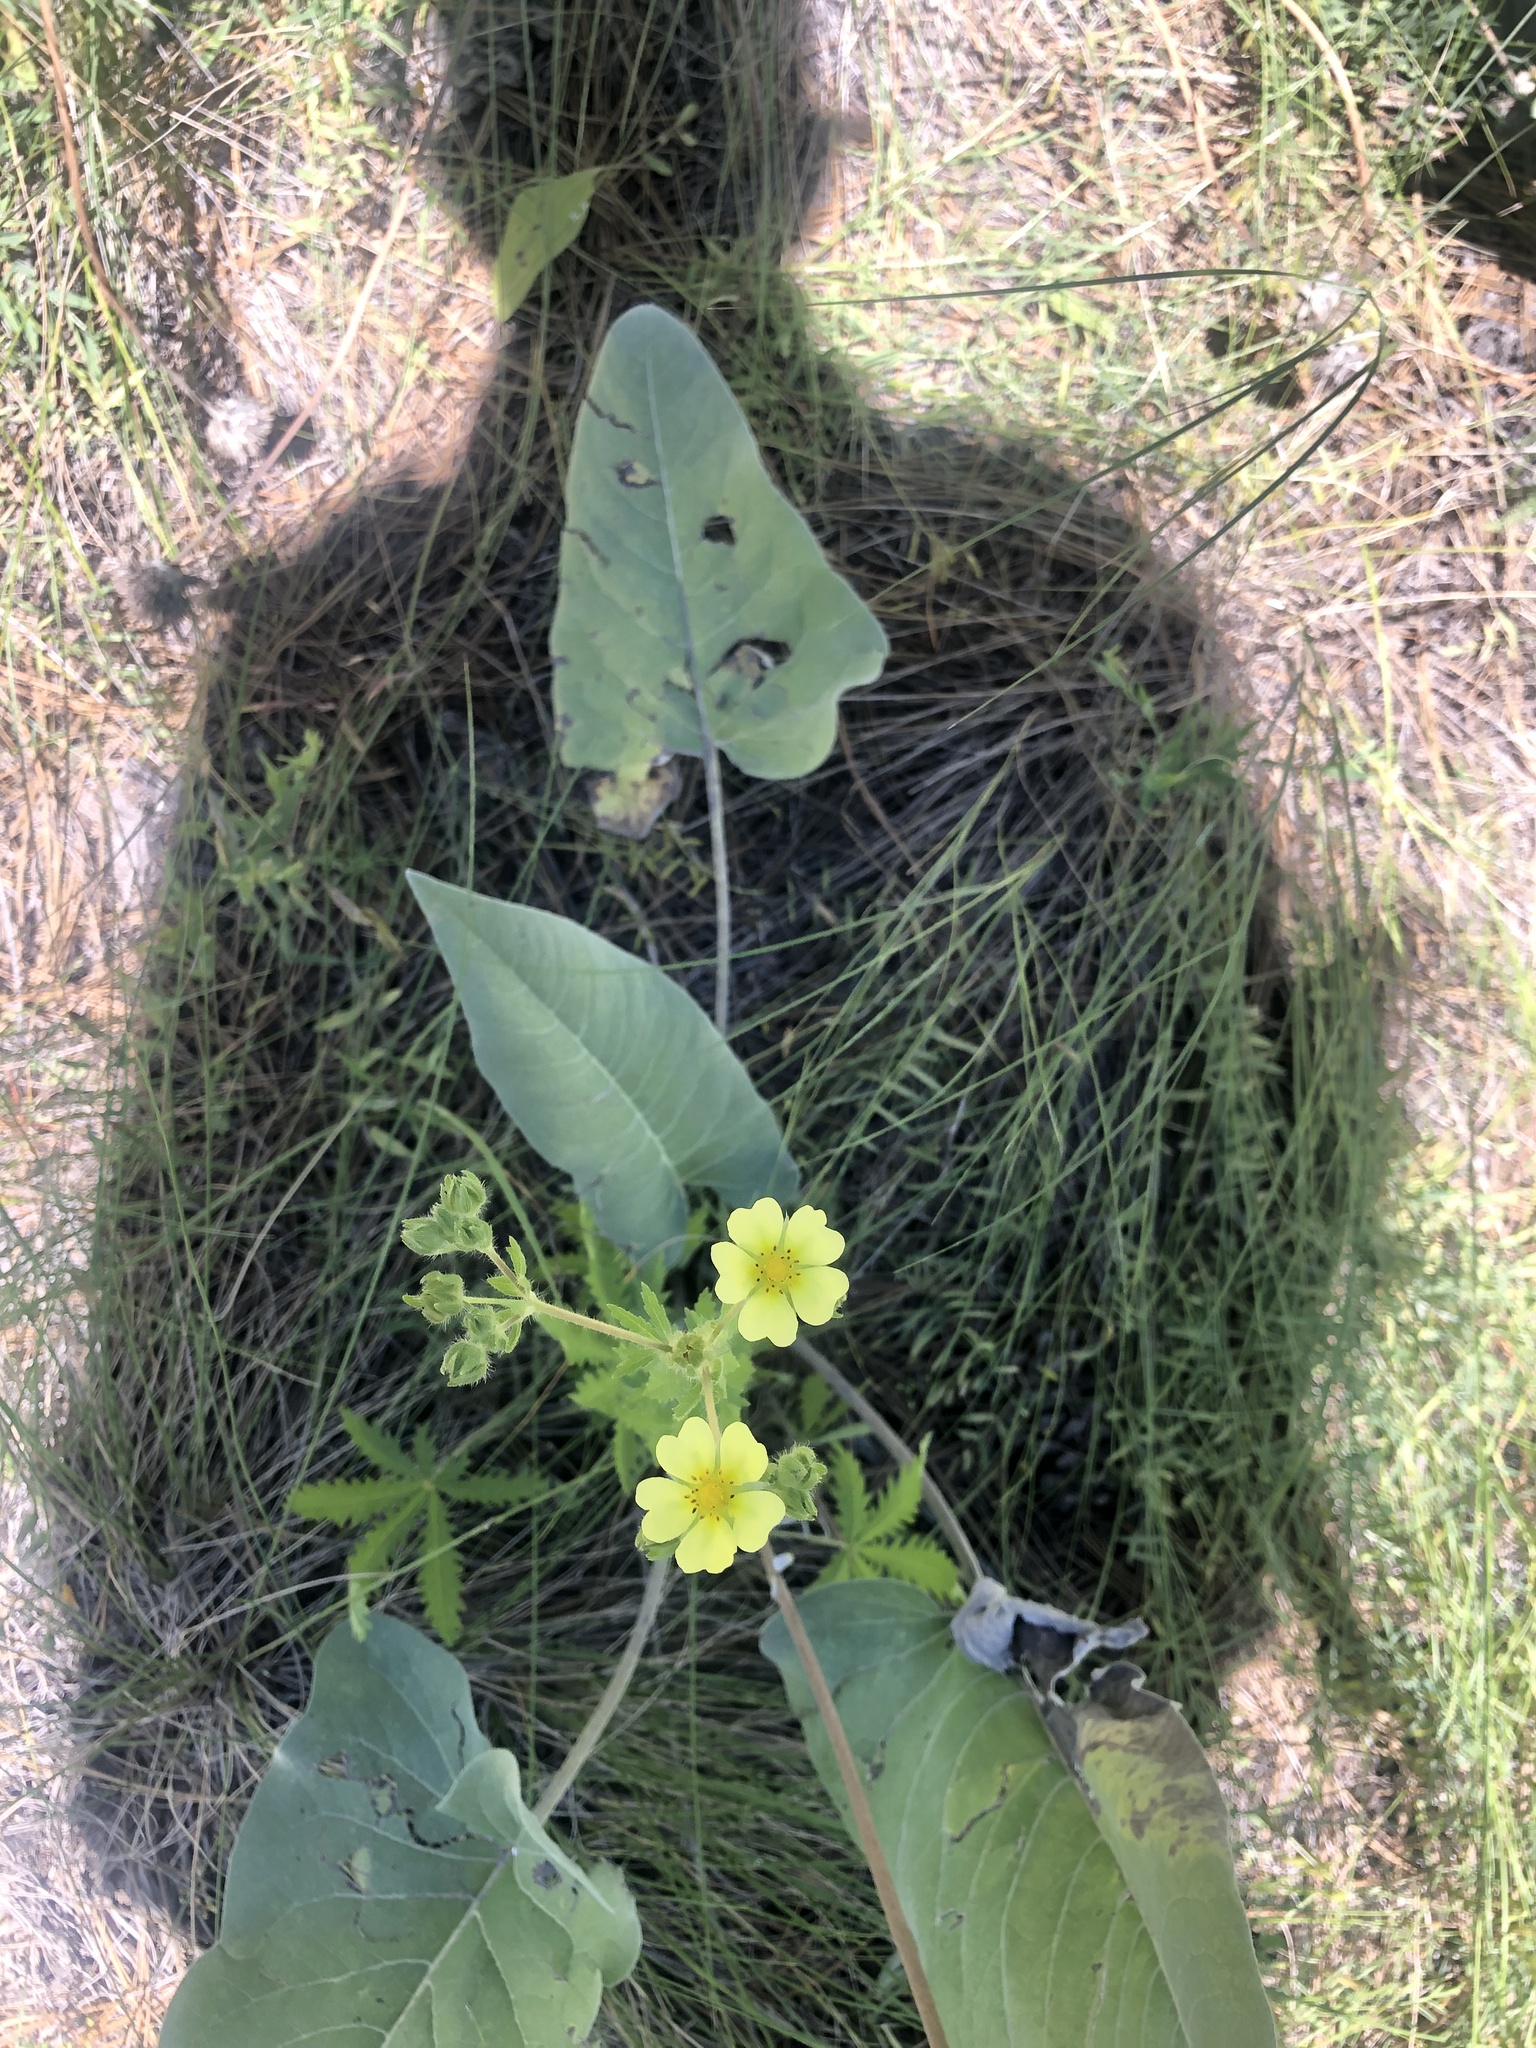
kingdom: Plantae
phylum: Tracheophyta
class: Magnoliopsida
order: Rosales
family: Rosaceae
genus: Potentilla
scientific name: Potentilla recta
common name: Sulphur cinquefoil
